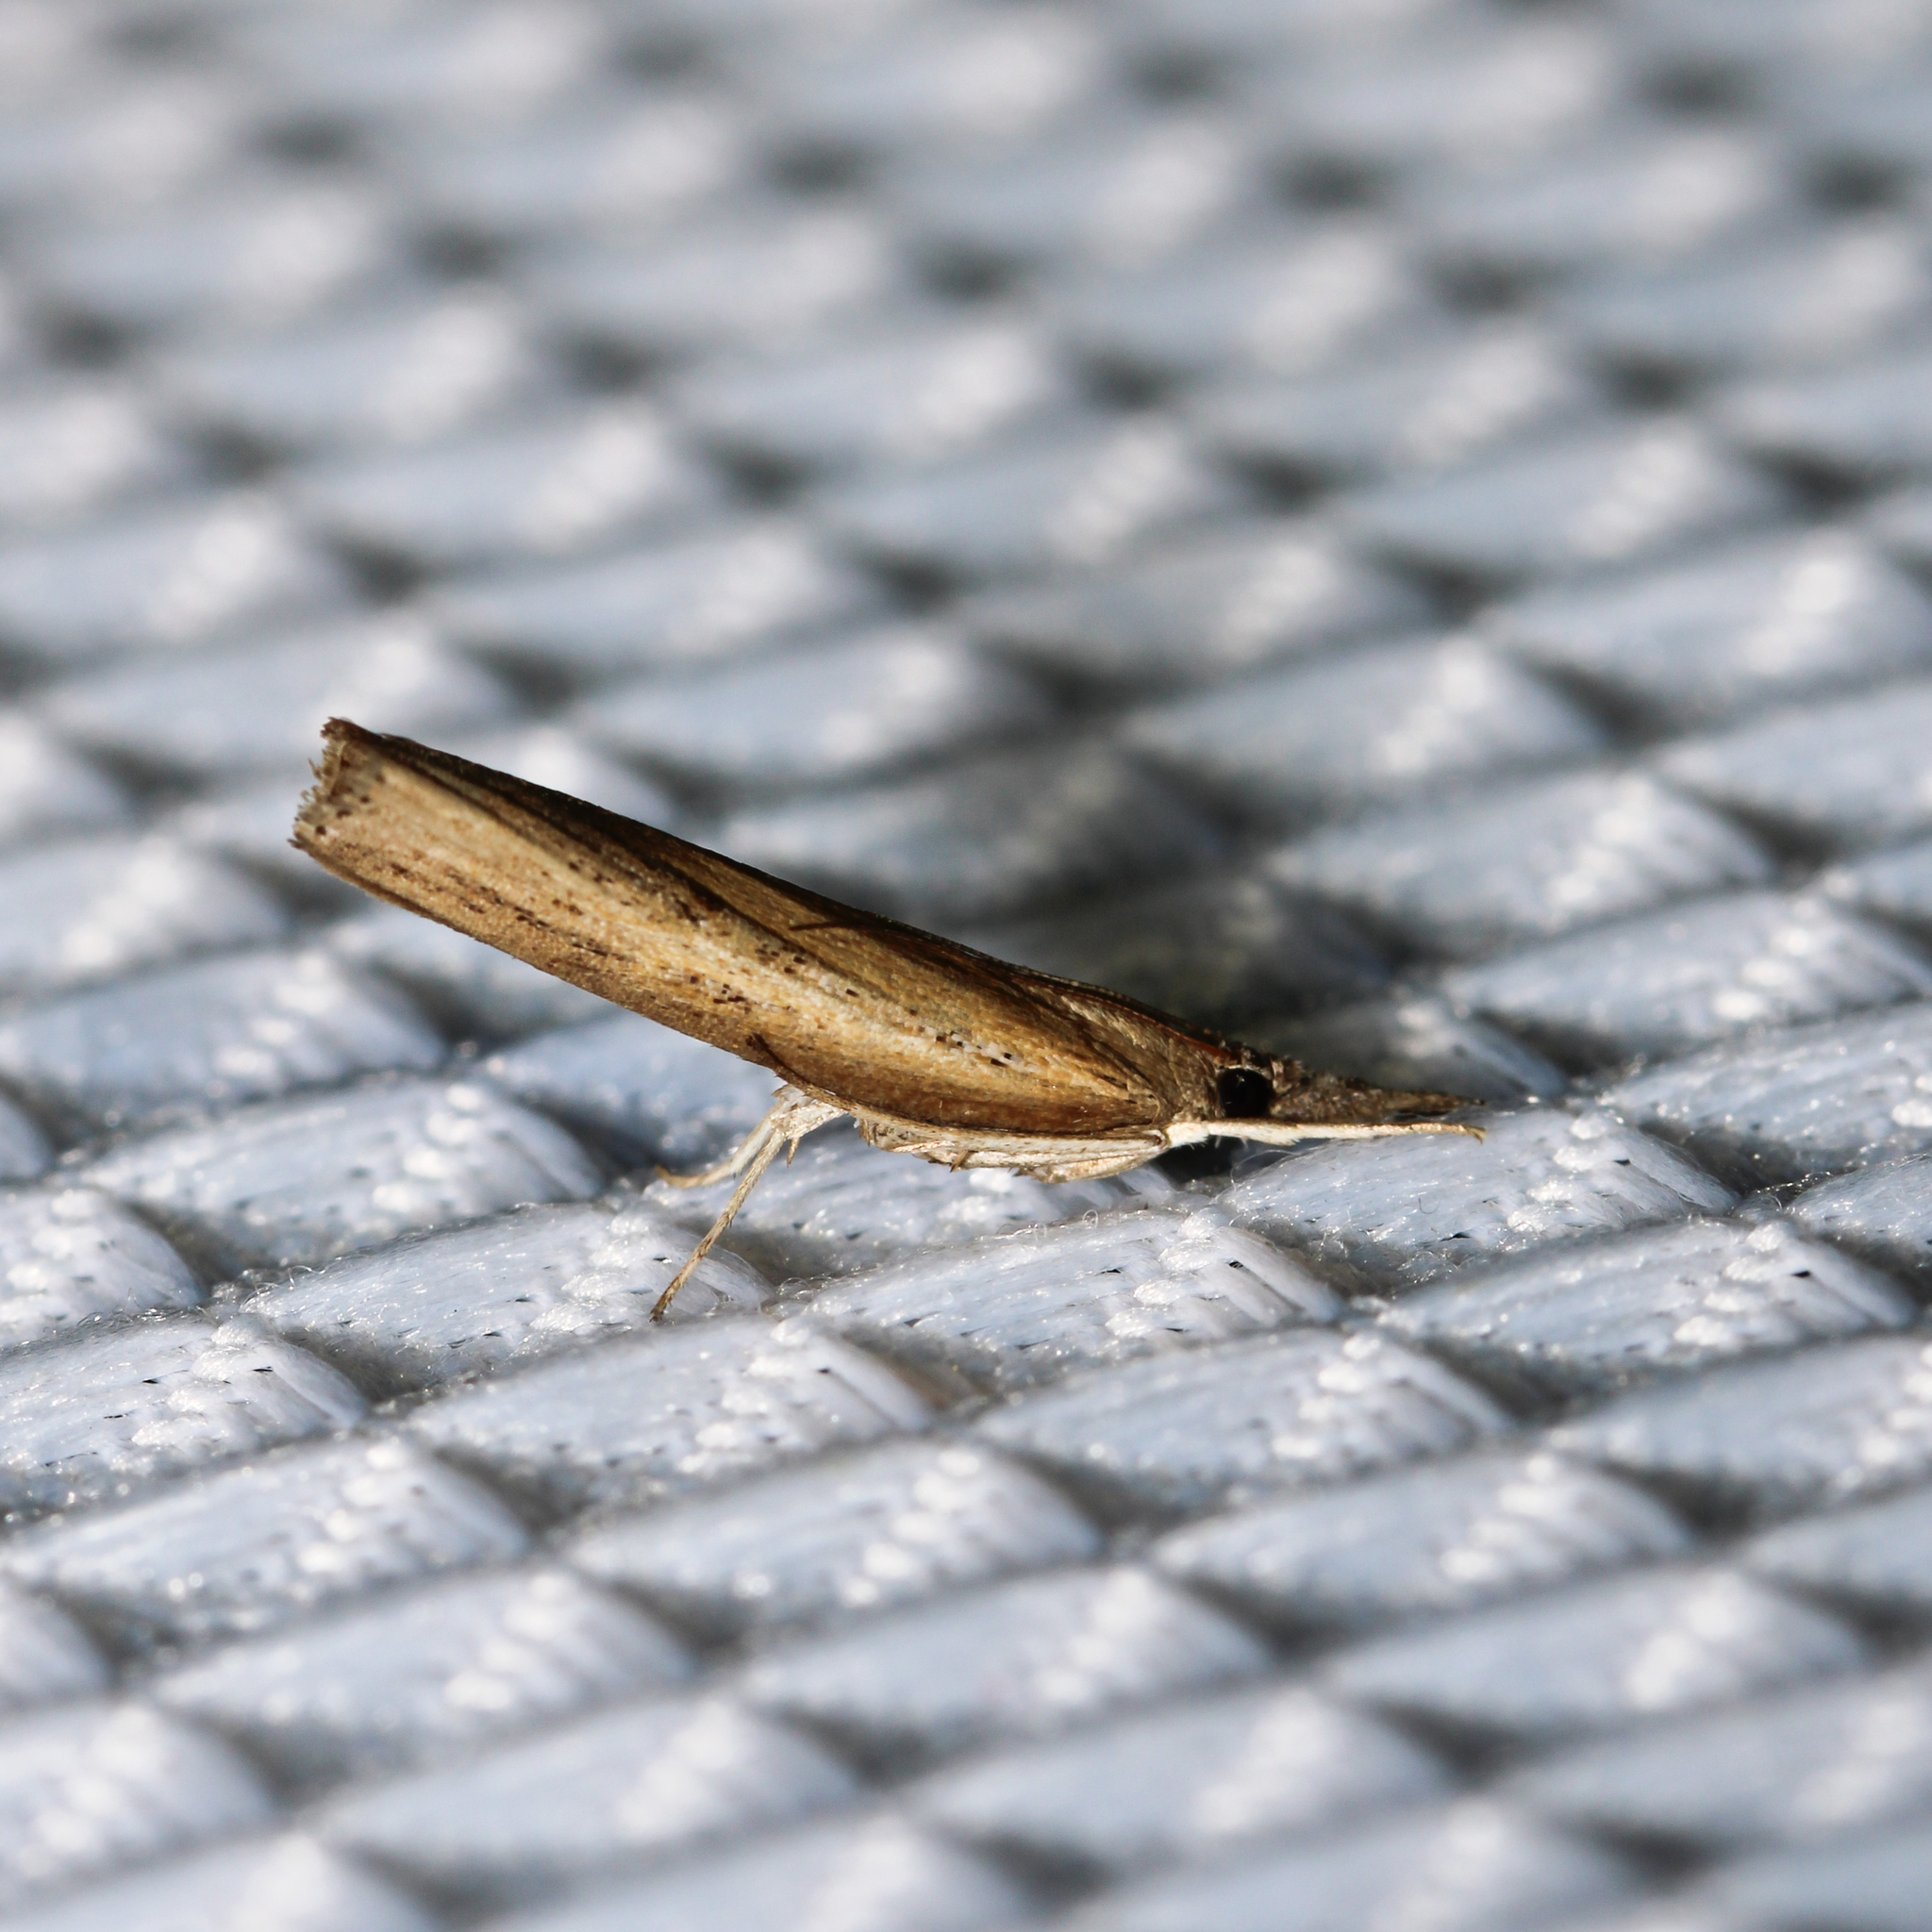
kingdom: Animalia
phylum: Arthropoda
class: Insecta
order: Lepidoptera
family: Crambidae
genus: Fissicrambus
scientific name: Fissicrambus mutabilis
